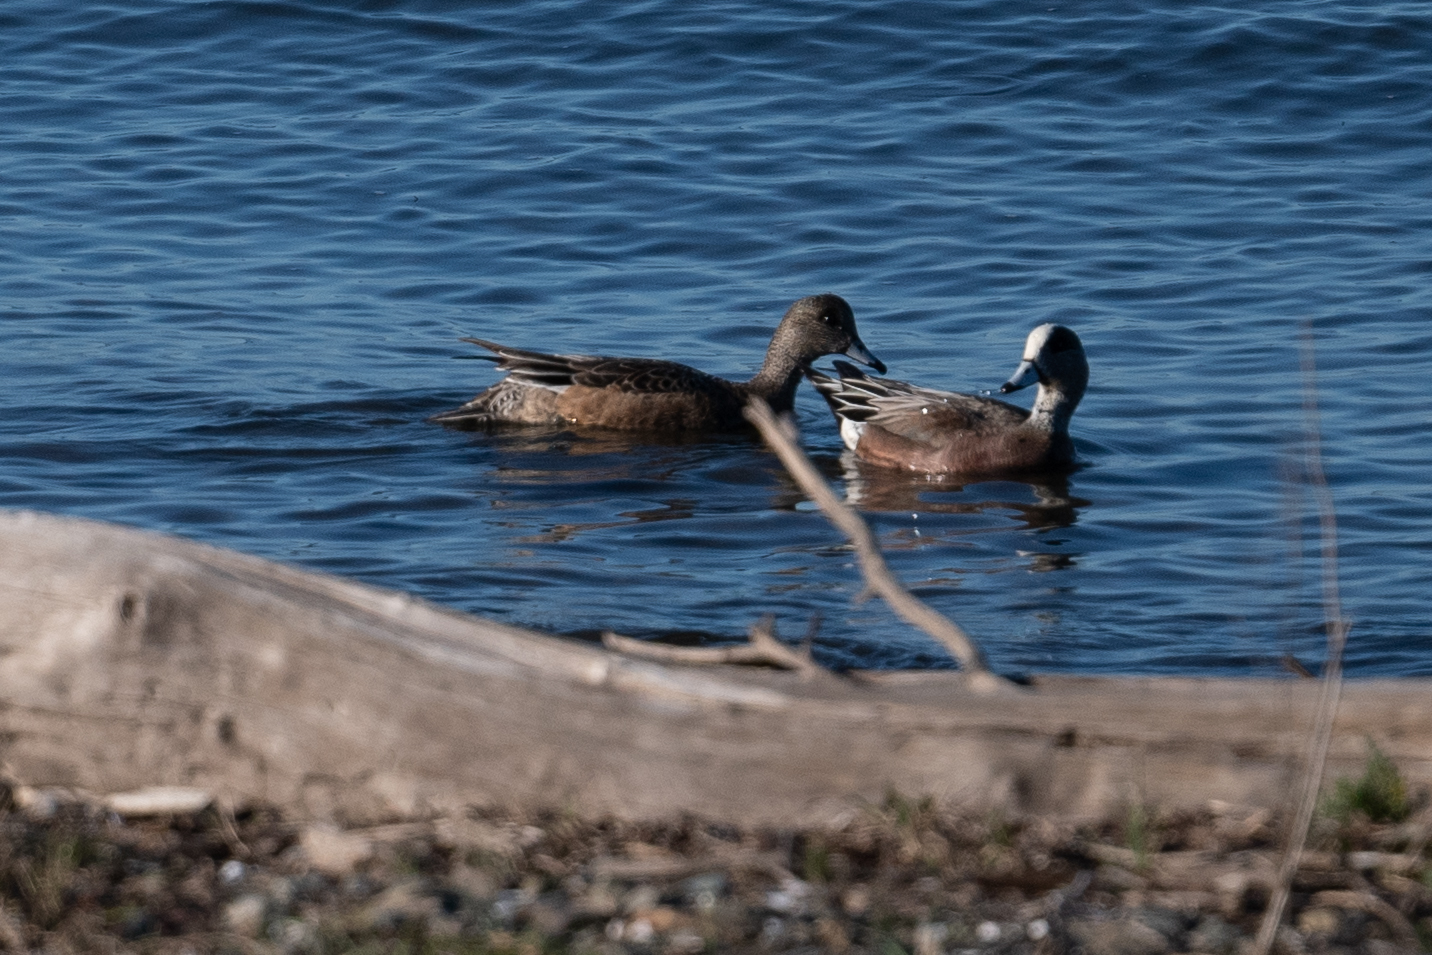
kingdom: Animalia
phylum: Chordata
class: Aves
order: Anseriformes
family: Anatidae
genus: Mareca
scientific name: Mareca americana
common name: American wigeon
